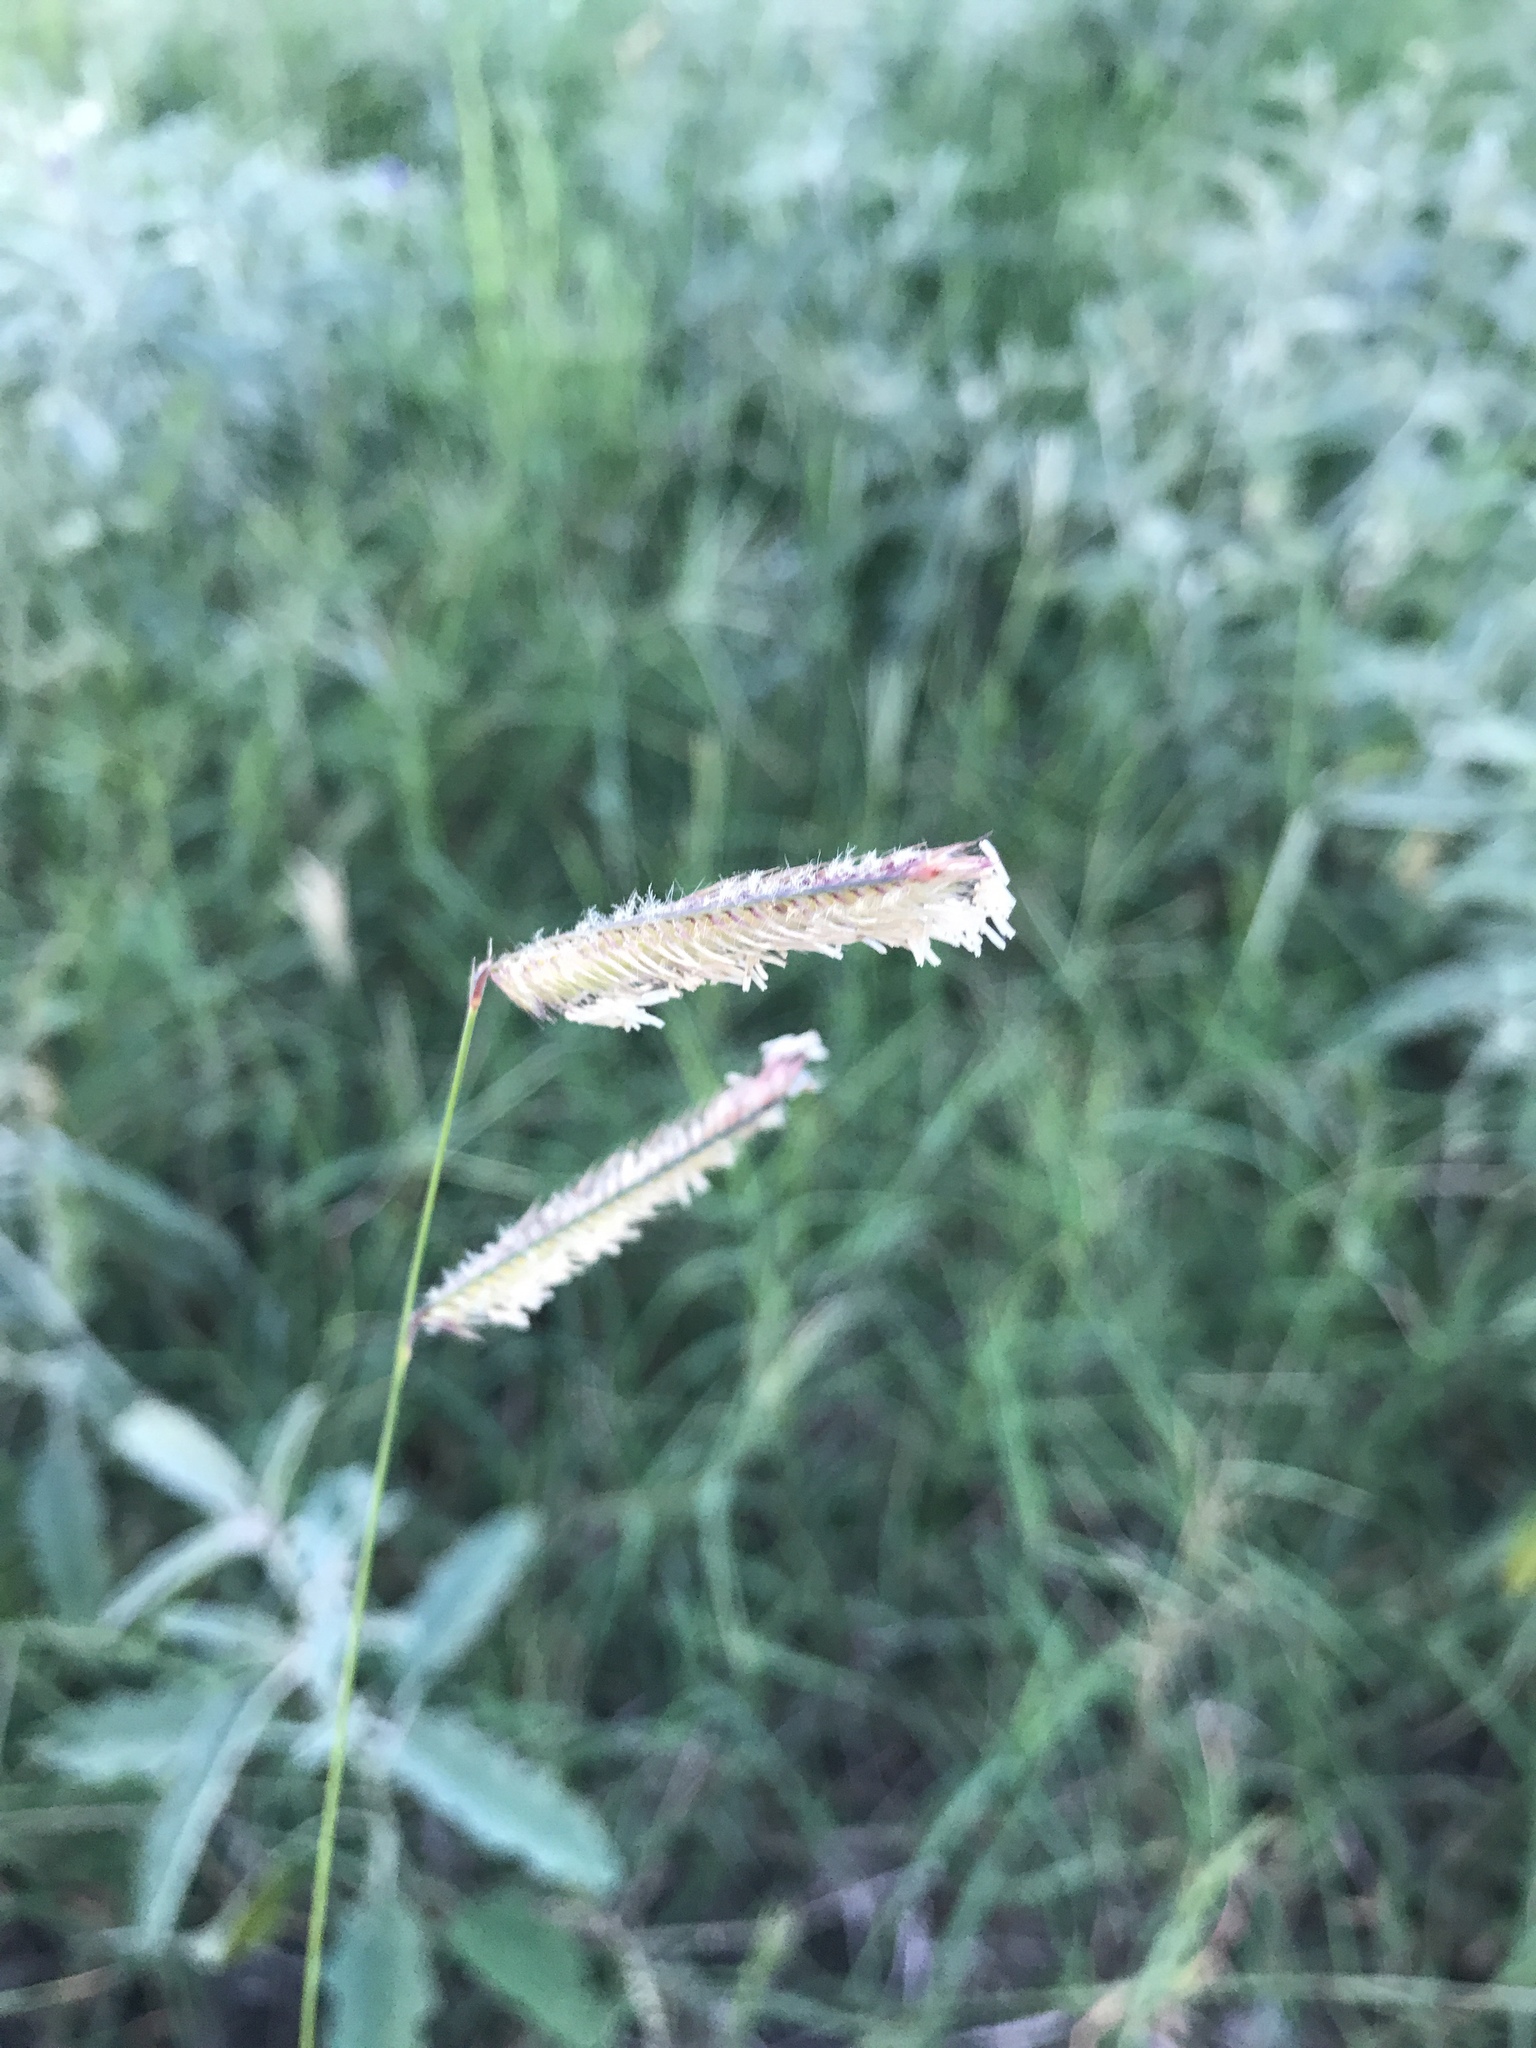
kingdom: Plantae
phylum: Tracheophyta
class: Liliopsida
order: Poales
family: Poaceae
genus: Bouteloua
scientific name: Bouteloua gracilis
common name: Blue grama
